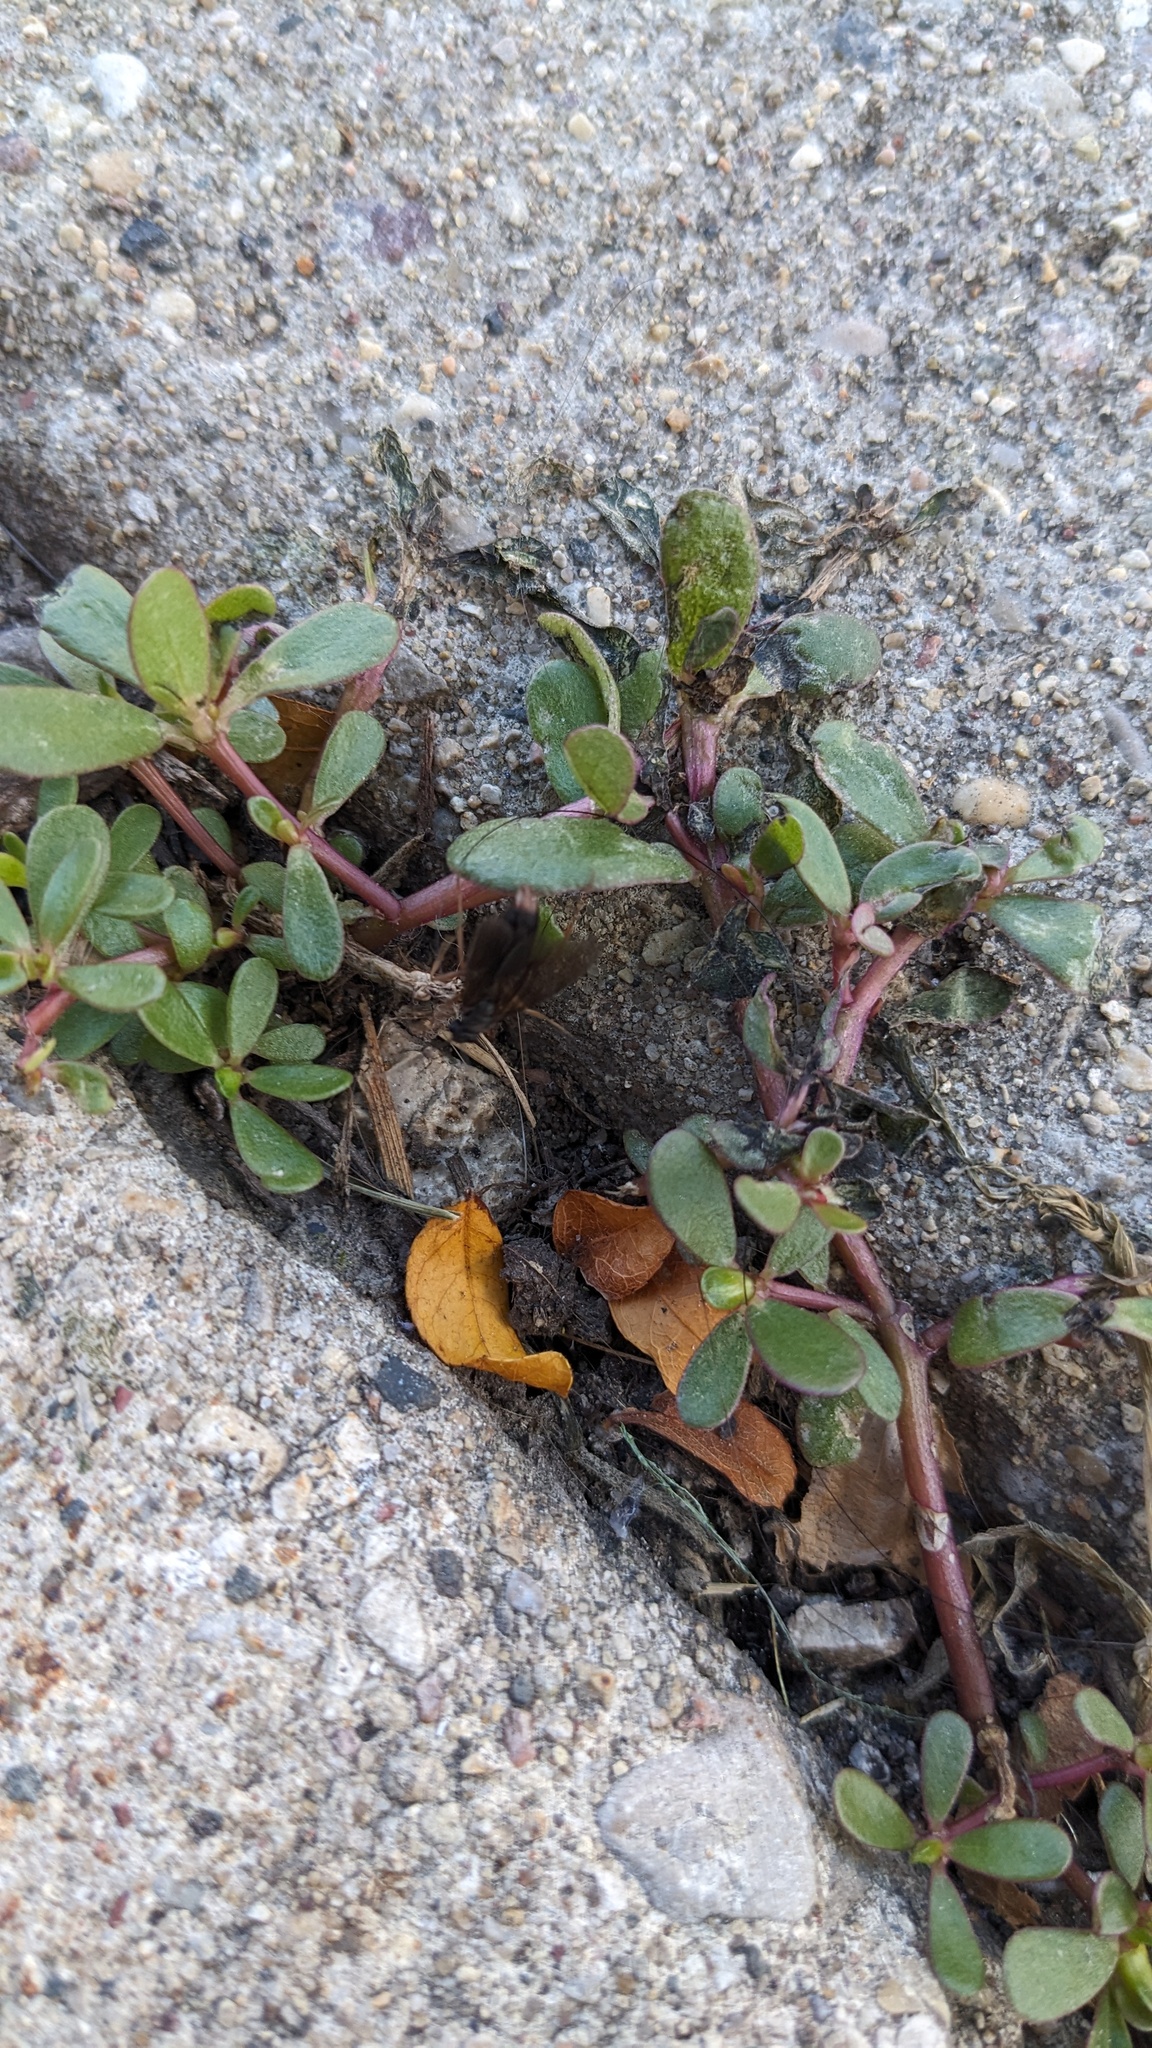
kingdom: Plantae
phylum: Tracheophyta
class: Magnoliopsida
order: Caryophyllales
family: Portulacaceae
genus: Portulaca
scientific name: Portulaca oleracea
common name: Common purslane
